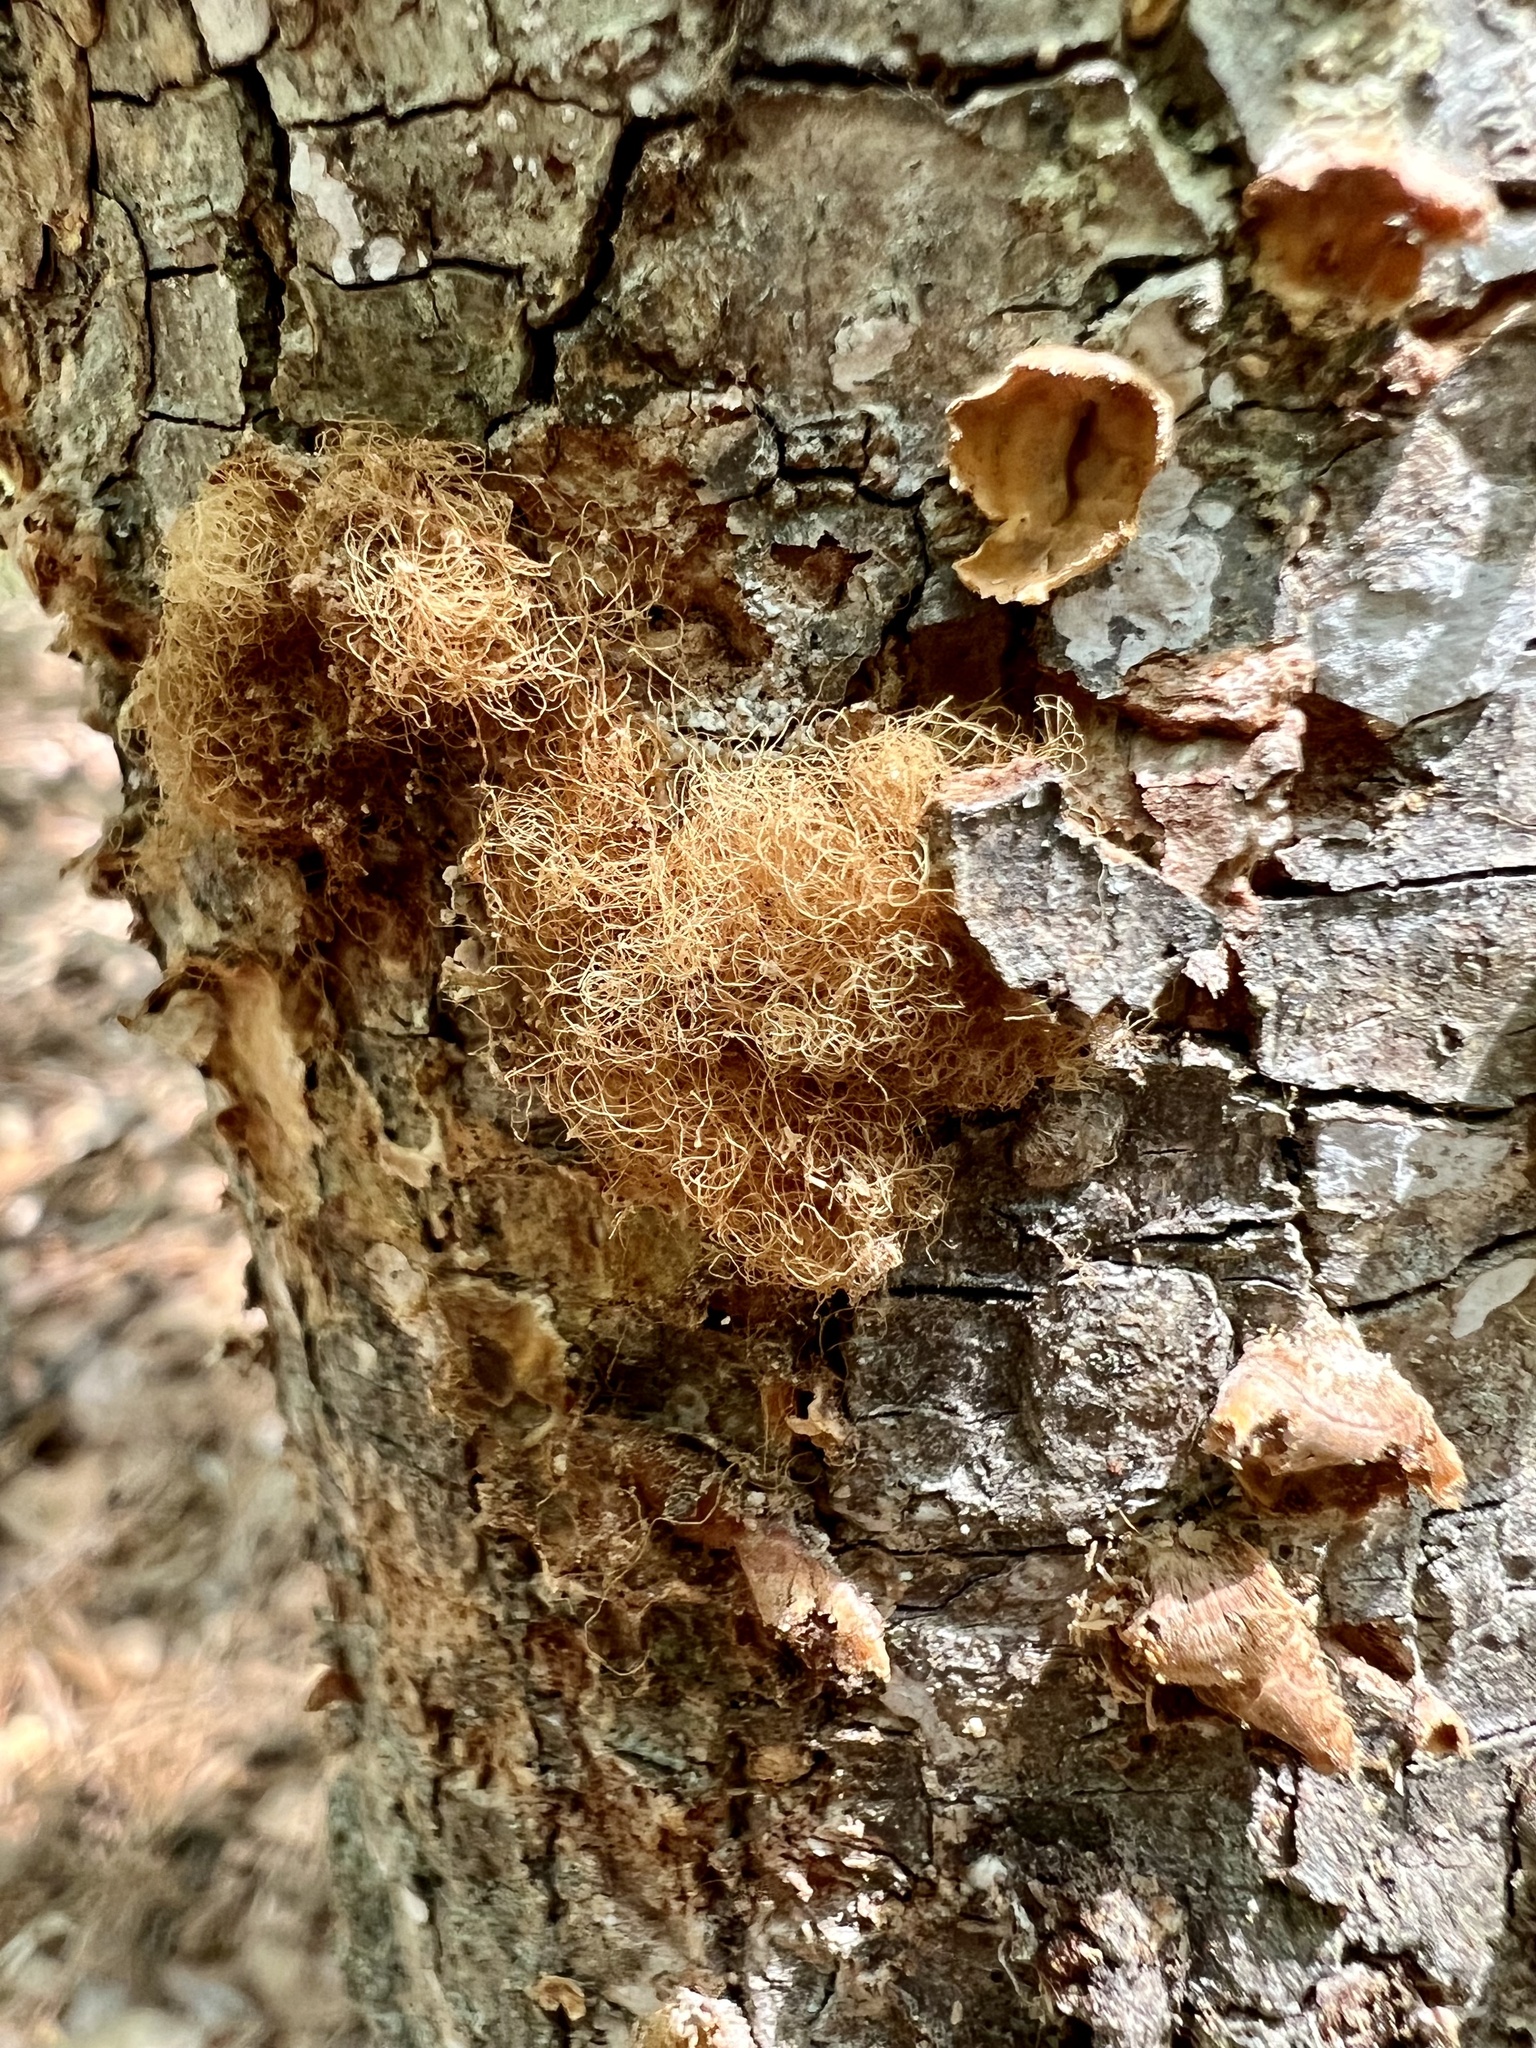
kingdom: Fungi
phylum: Basidiomycota
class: Agaricomycetes
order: Russulales
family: Stereaceae
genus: Stereum
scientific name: Stereum complicatum
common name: Crowded parchment
